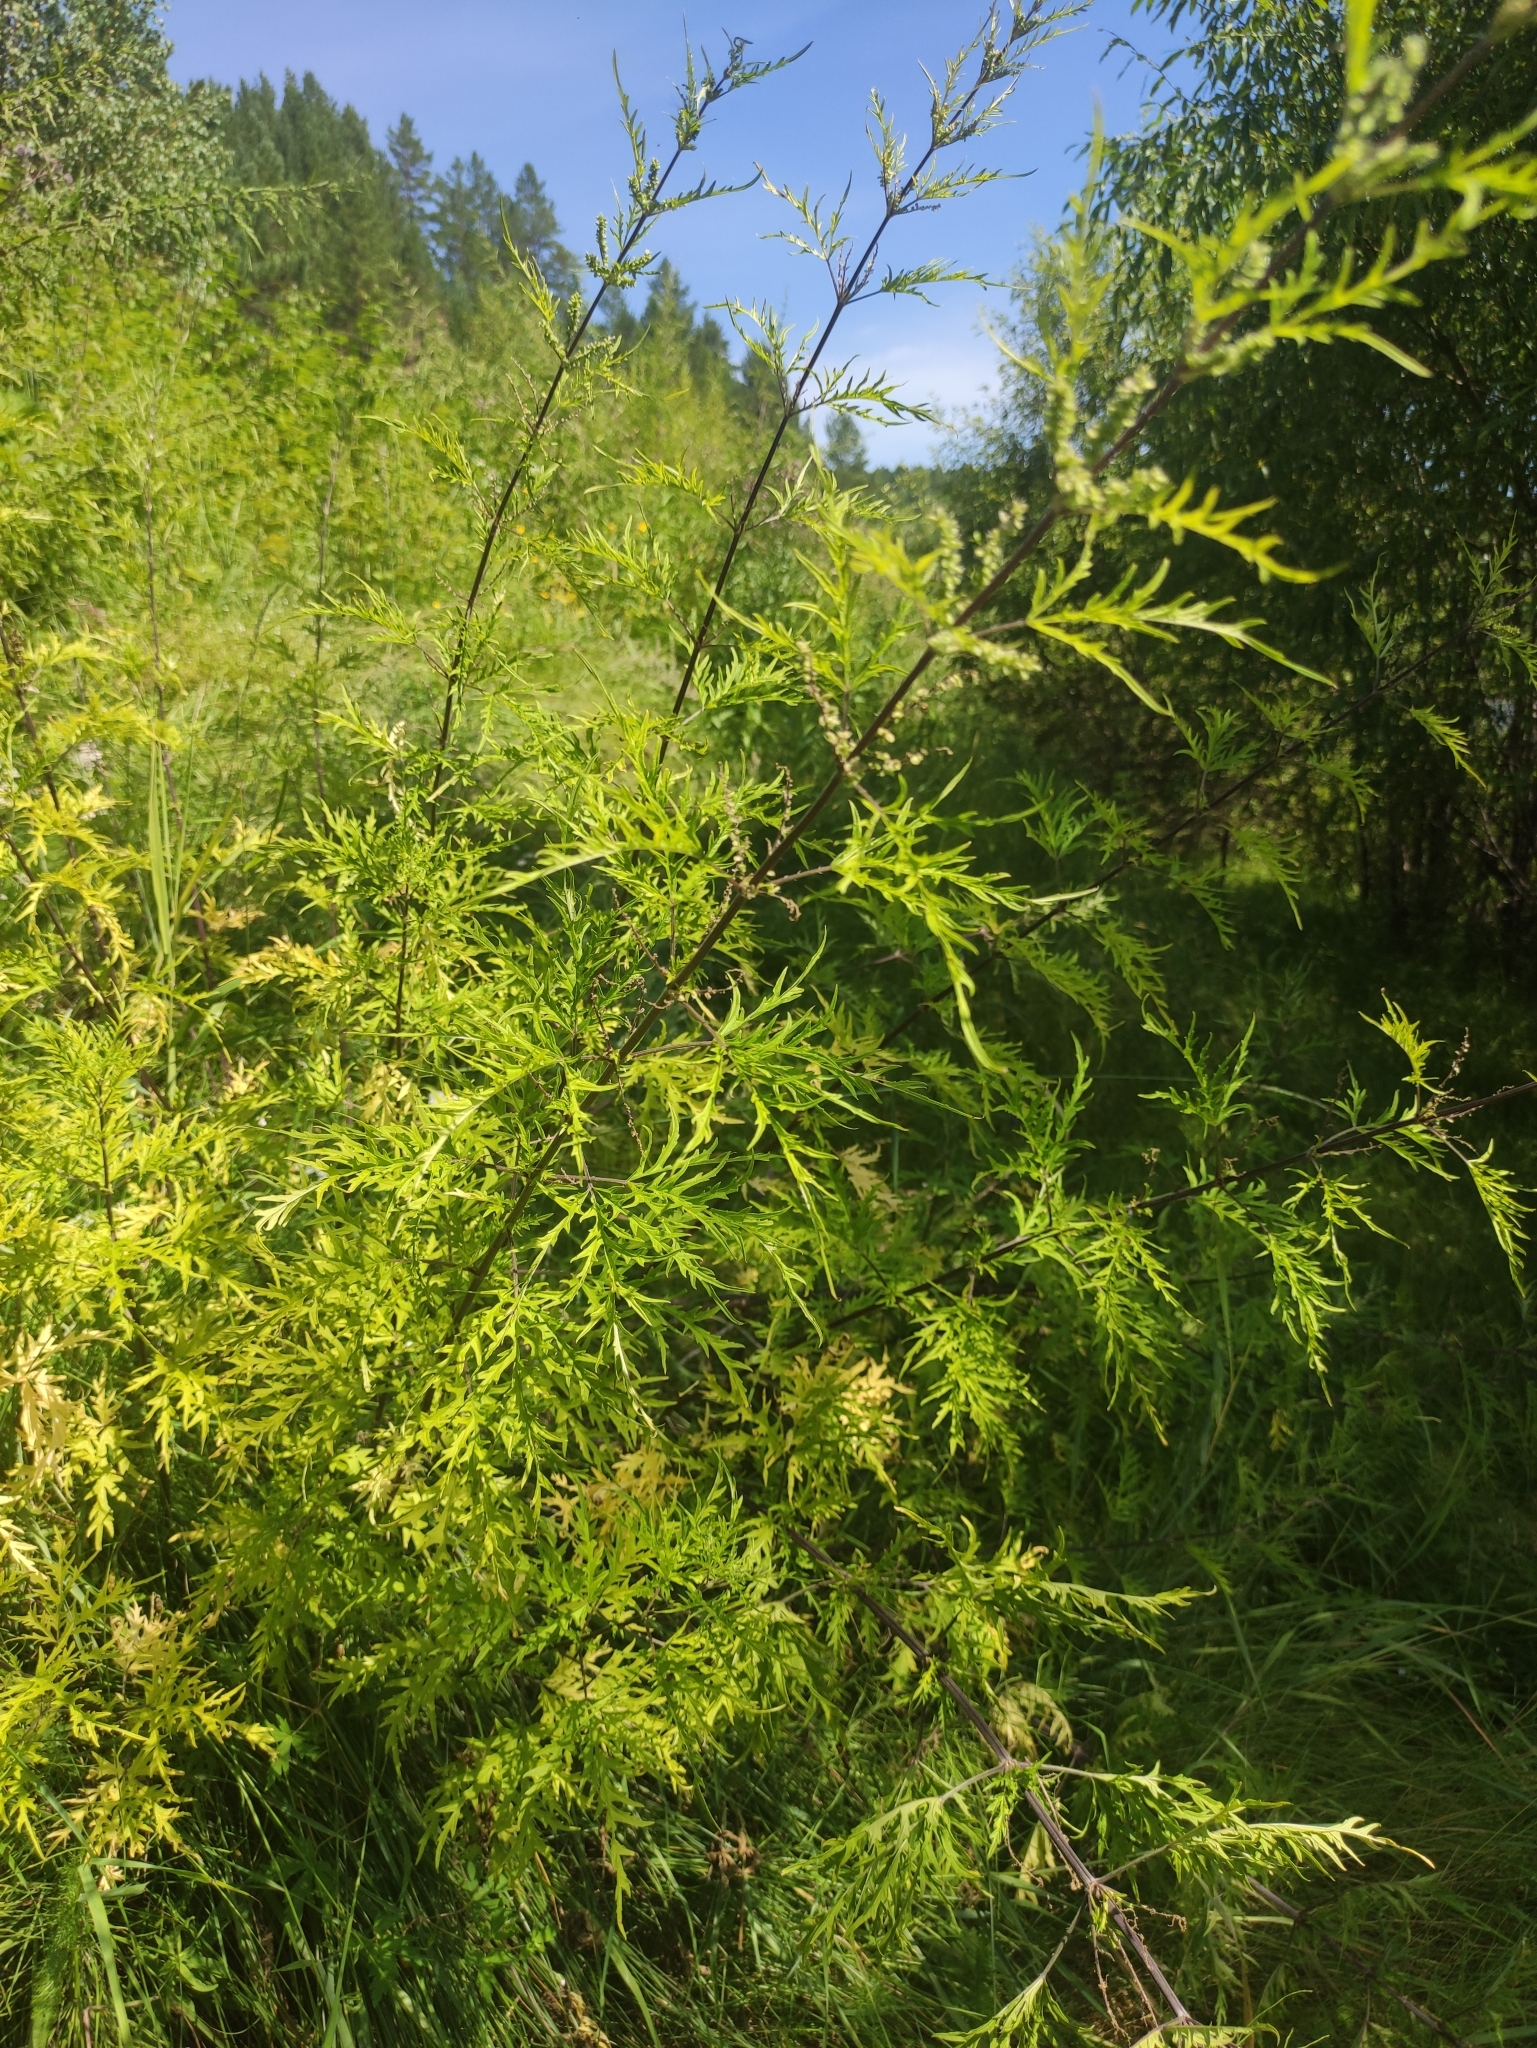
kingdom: Plantae
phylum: Tracheophyta
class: Magnoliopsida
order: Rosales
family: Urticaceae
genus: Urtica
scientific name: Urtica cannabina
